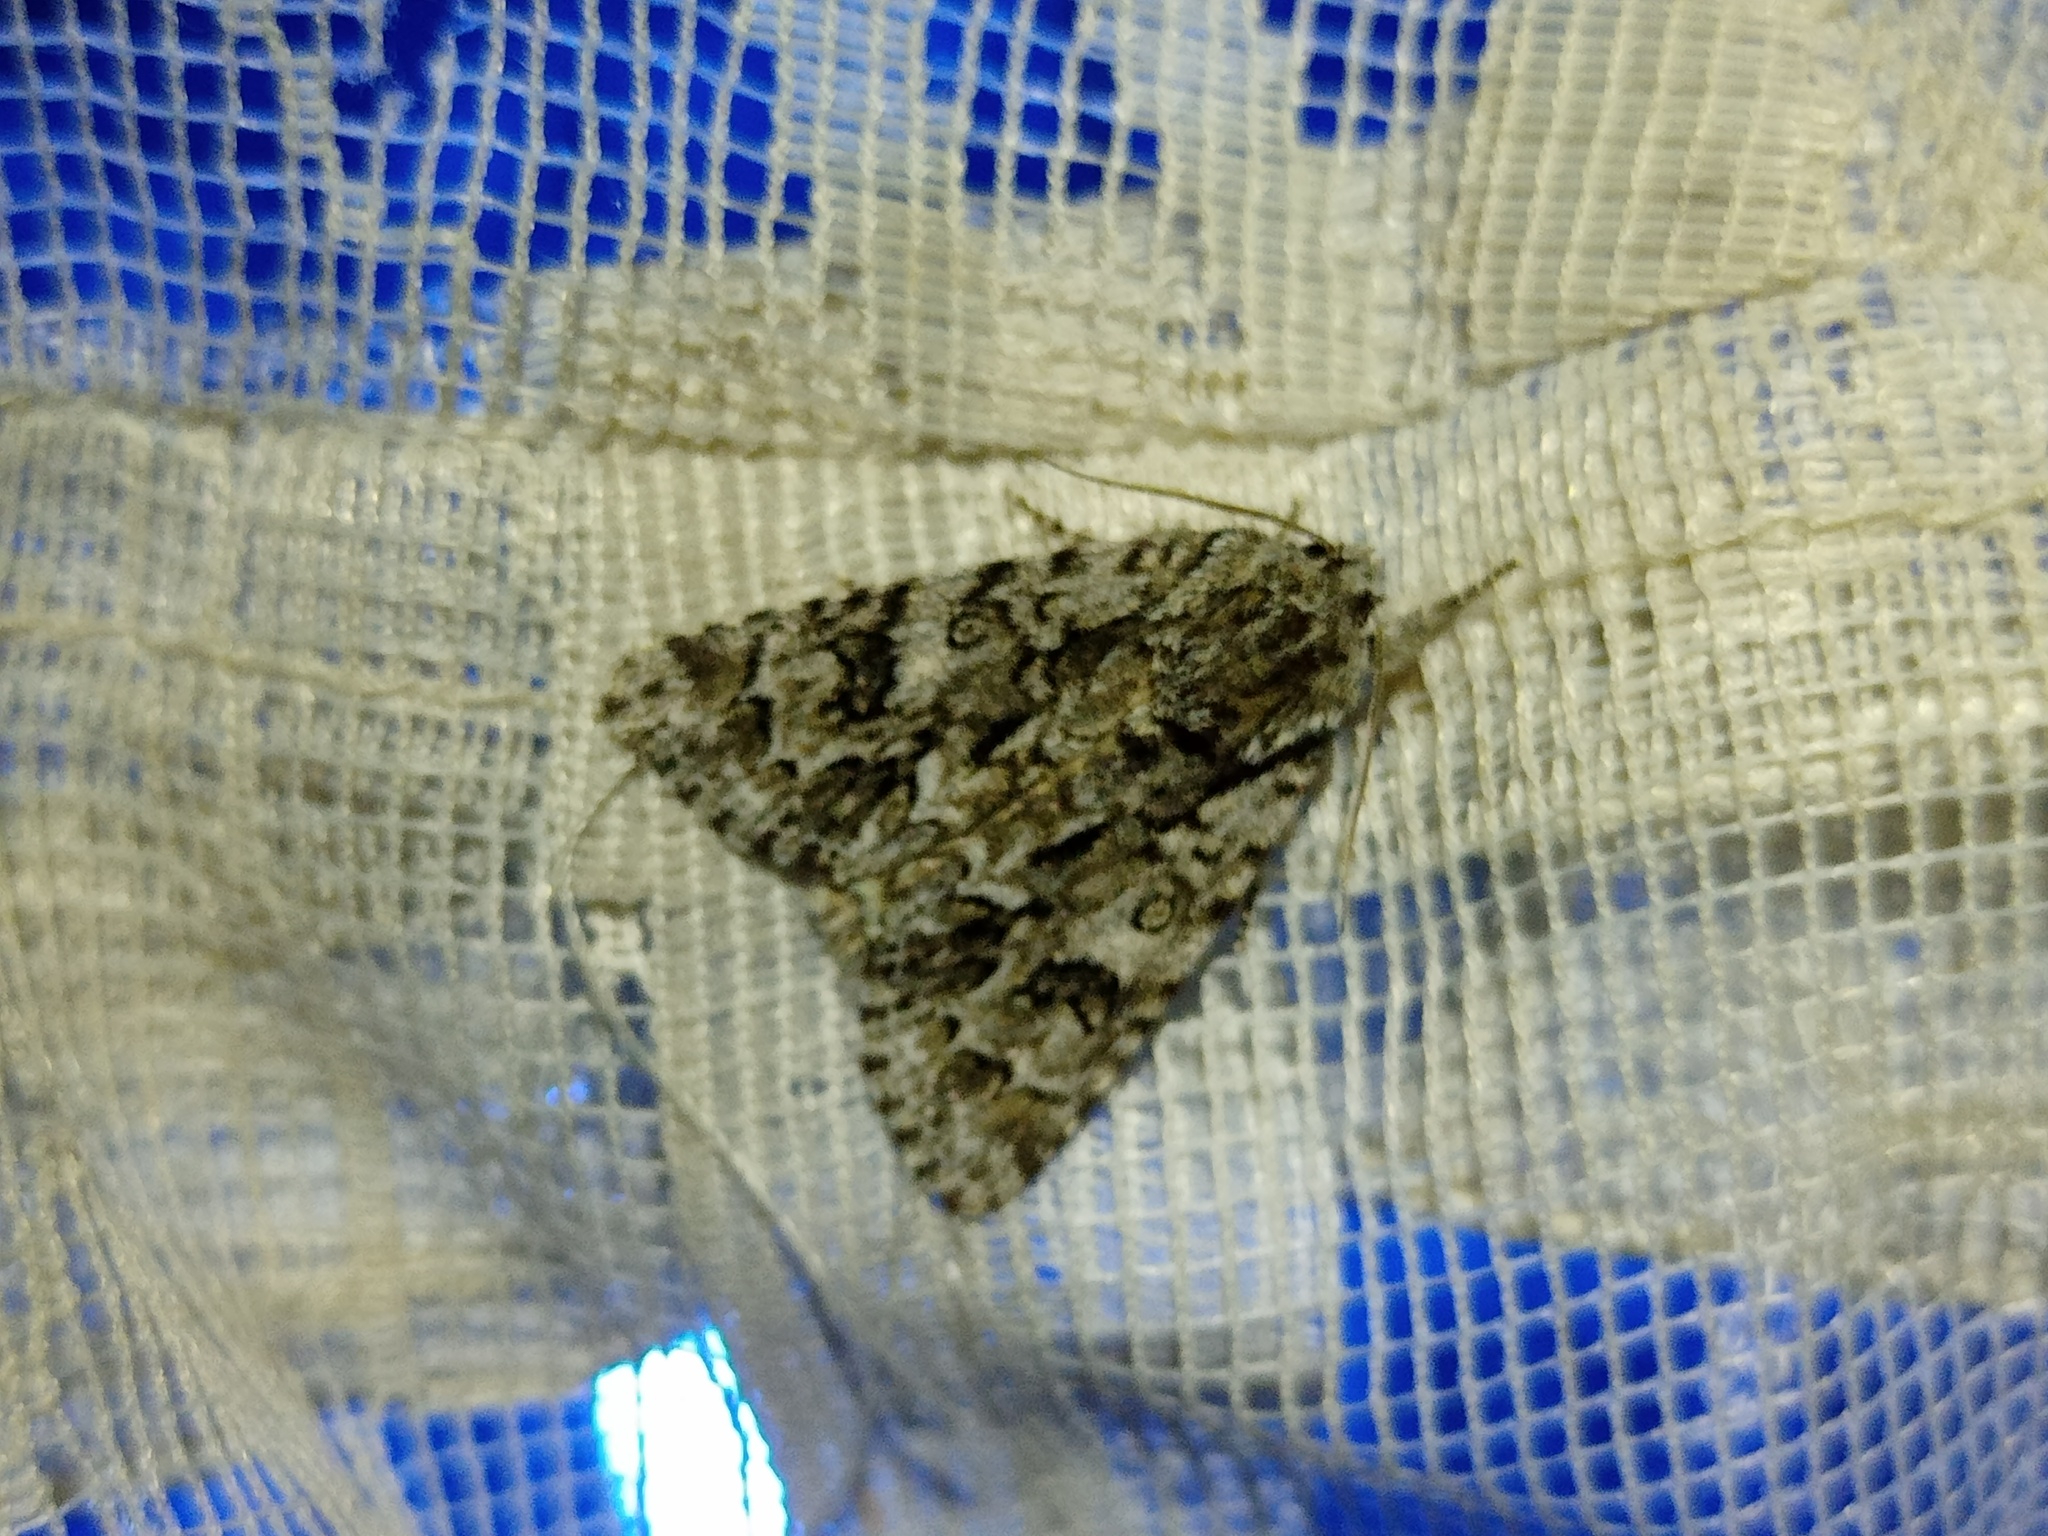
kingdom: Animalia
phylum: Arthropoda
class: Insecta
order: Lepidoptera
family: Noctuidae
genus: Acronicta
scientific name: Acronicta auricoma
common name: Scarce dagger
